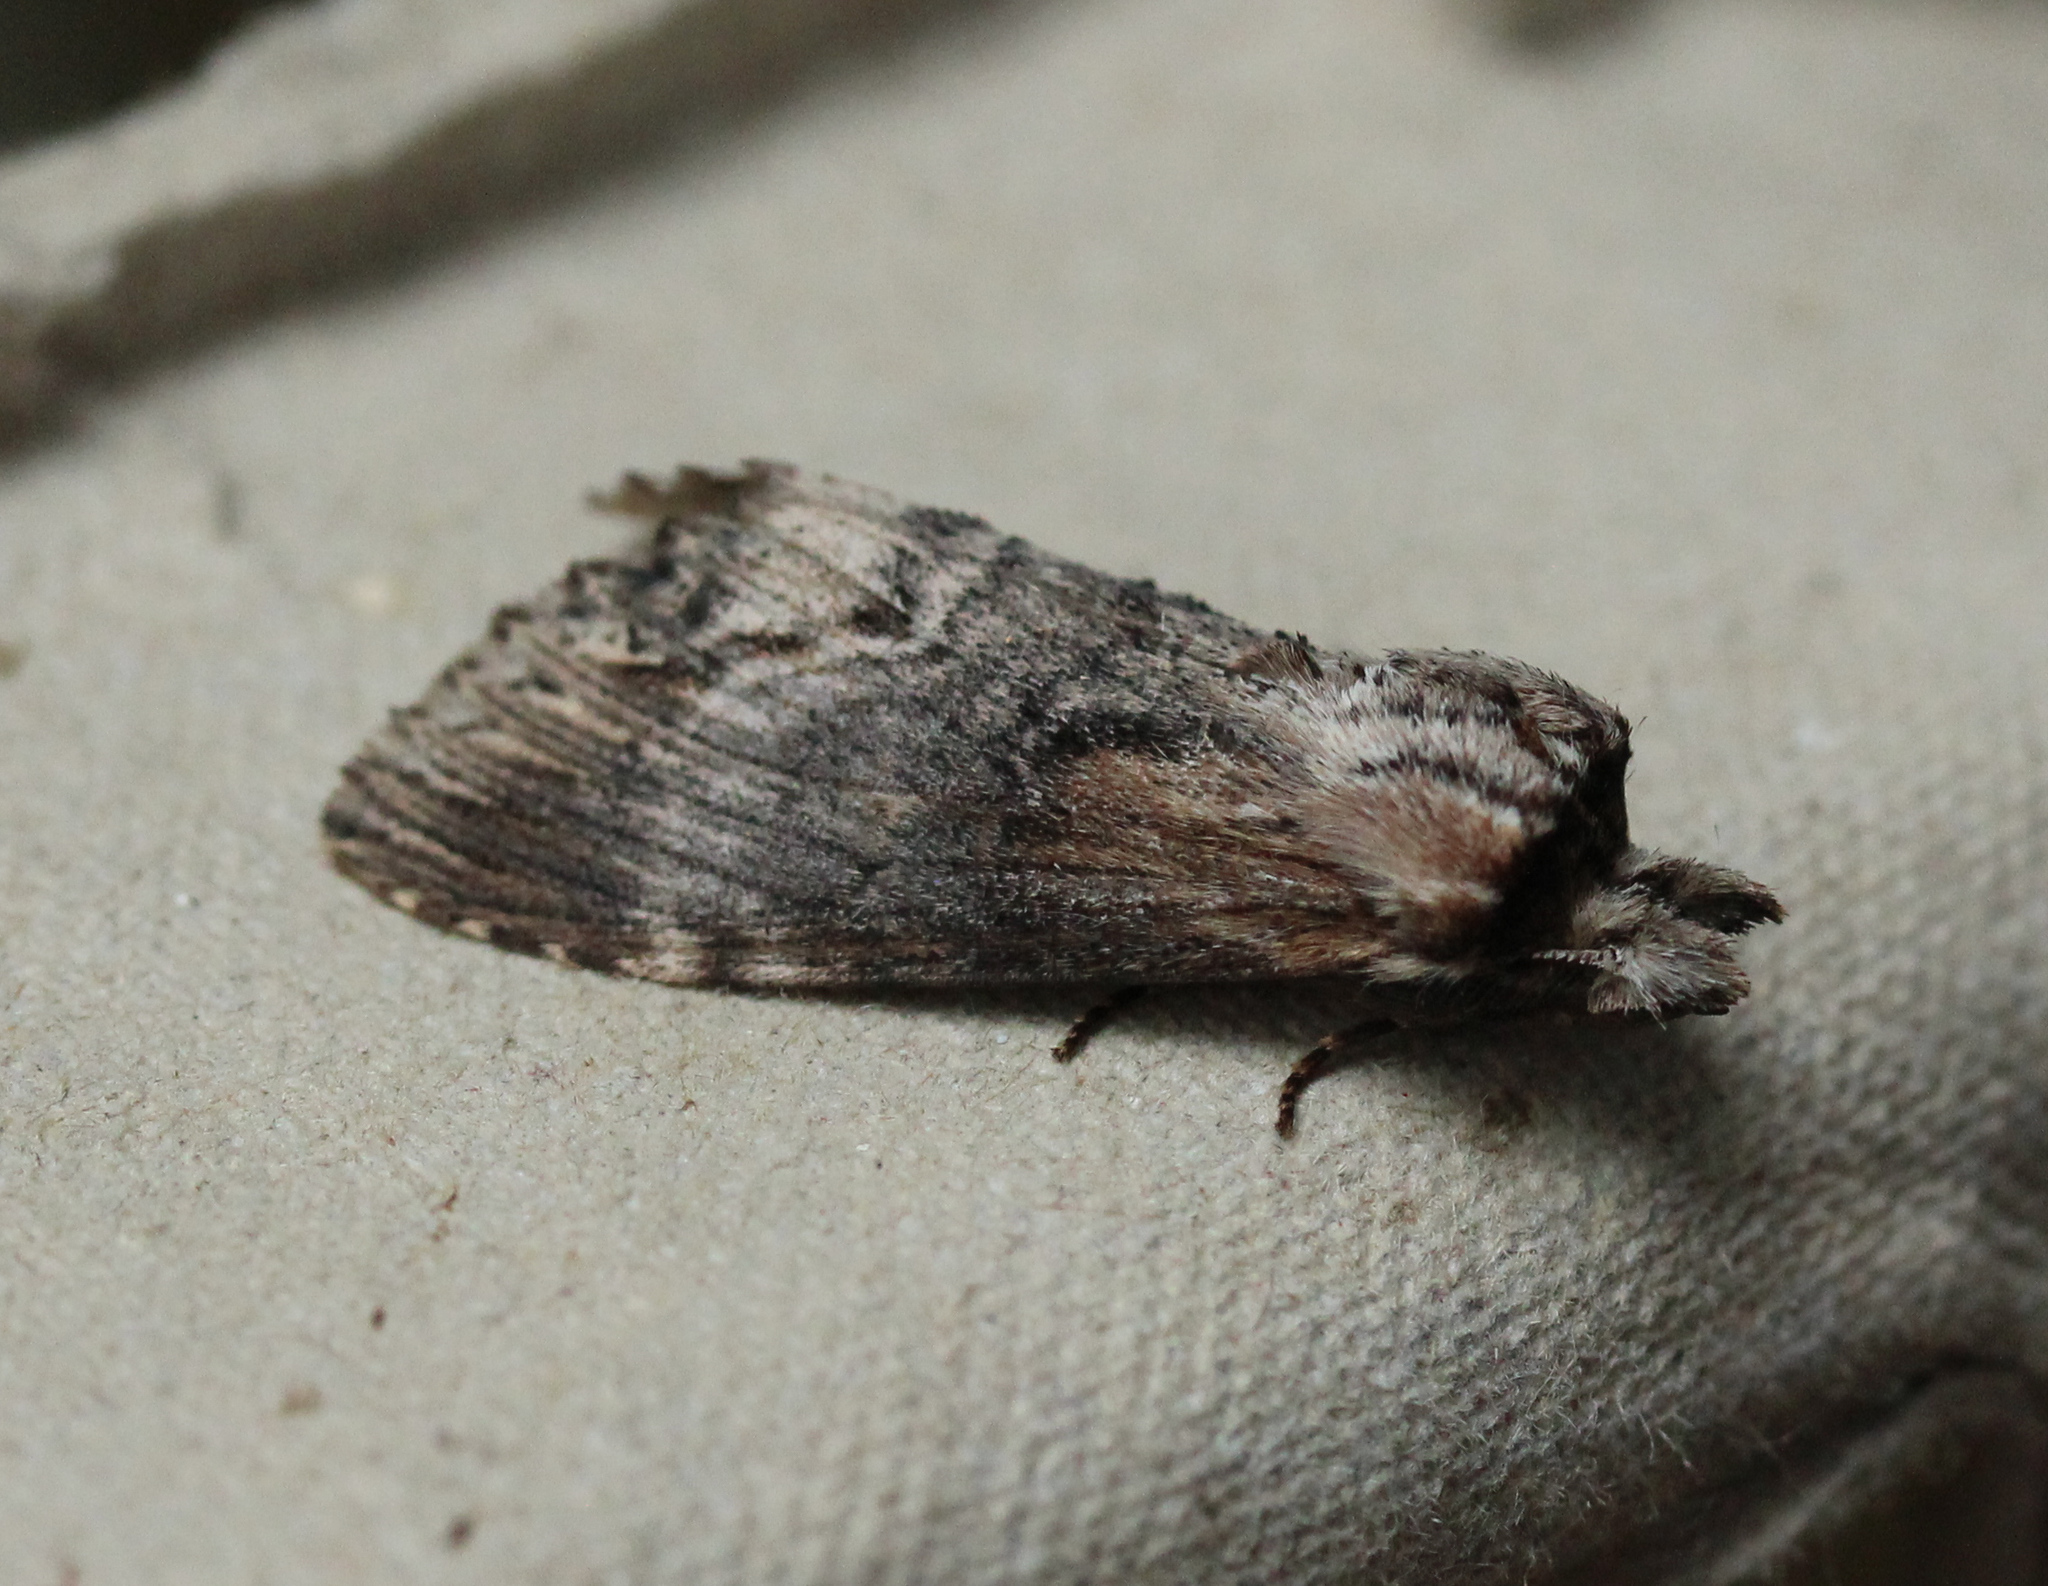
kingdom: Animalia
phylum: Arthropoda
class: Insecta
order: Lepidoptera
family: Notodontidae
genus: Dasylophia
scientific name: Dasylophia thyatiroides
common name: Gray-patched prominent
